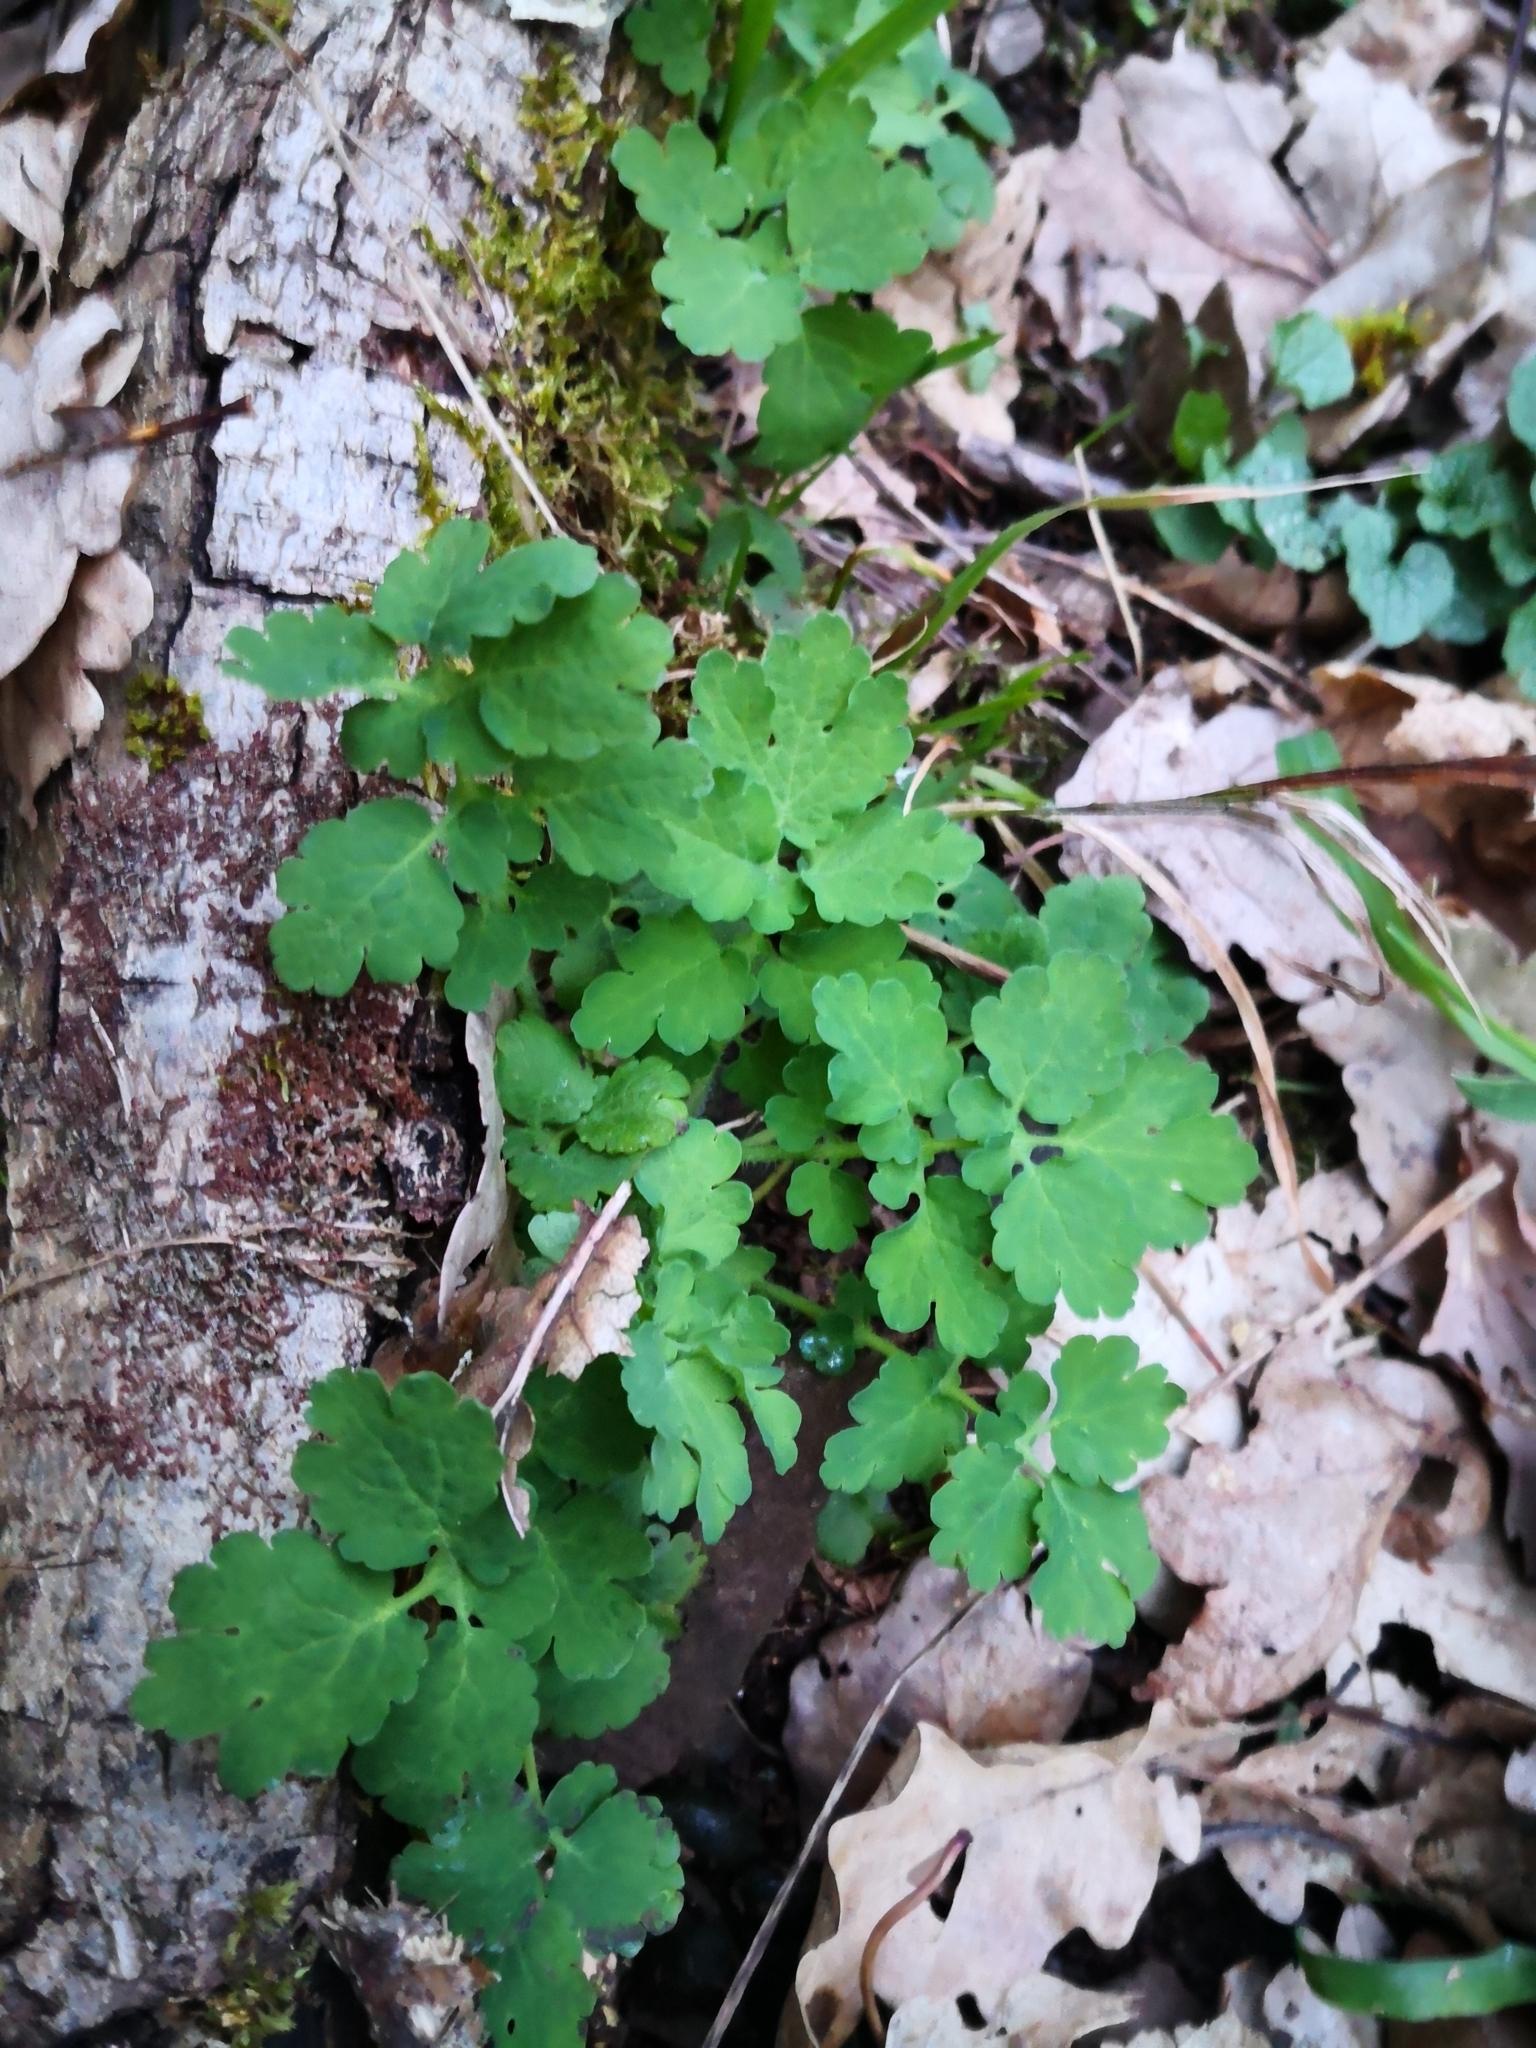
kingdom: Plantae
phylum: Tracheophyta
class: Magnoliopsida
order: Ranunculales
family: Papaveraceae
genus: Chelidonium
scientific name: Chelidonium majus
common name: Greater celandine
